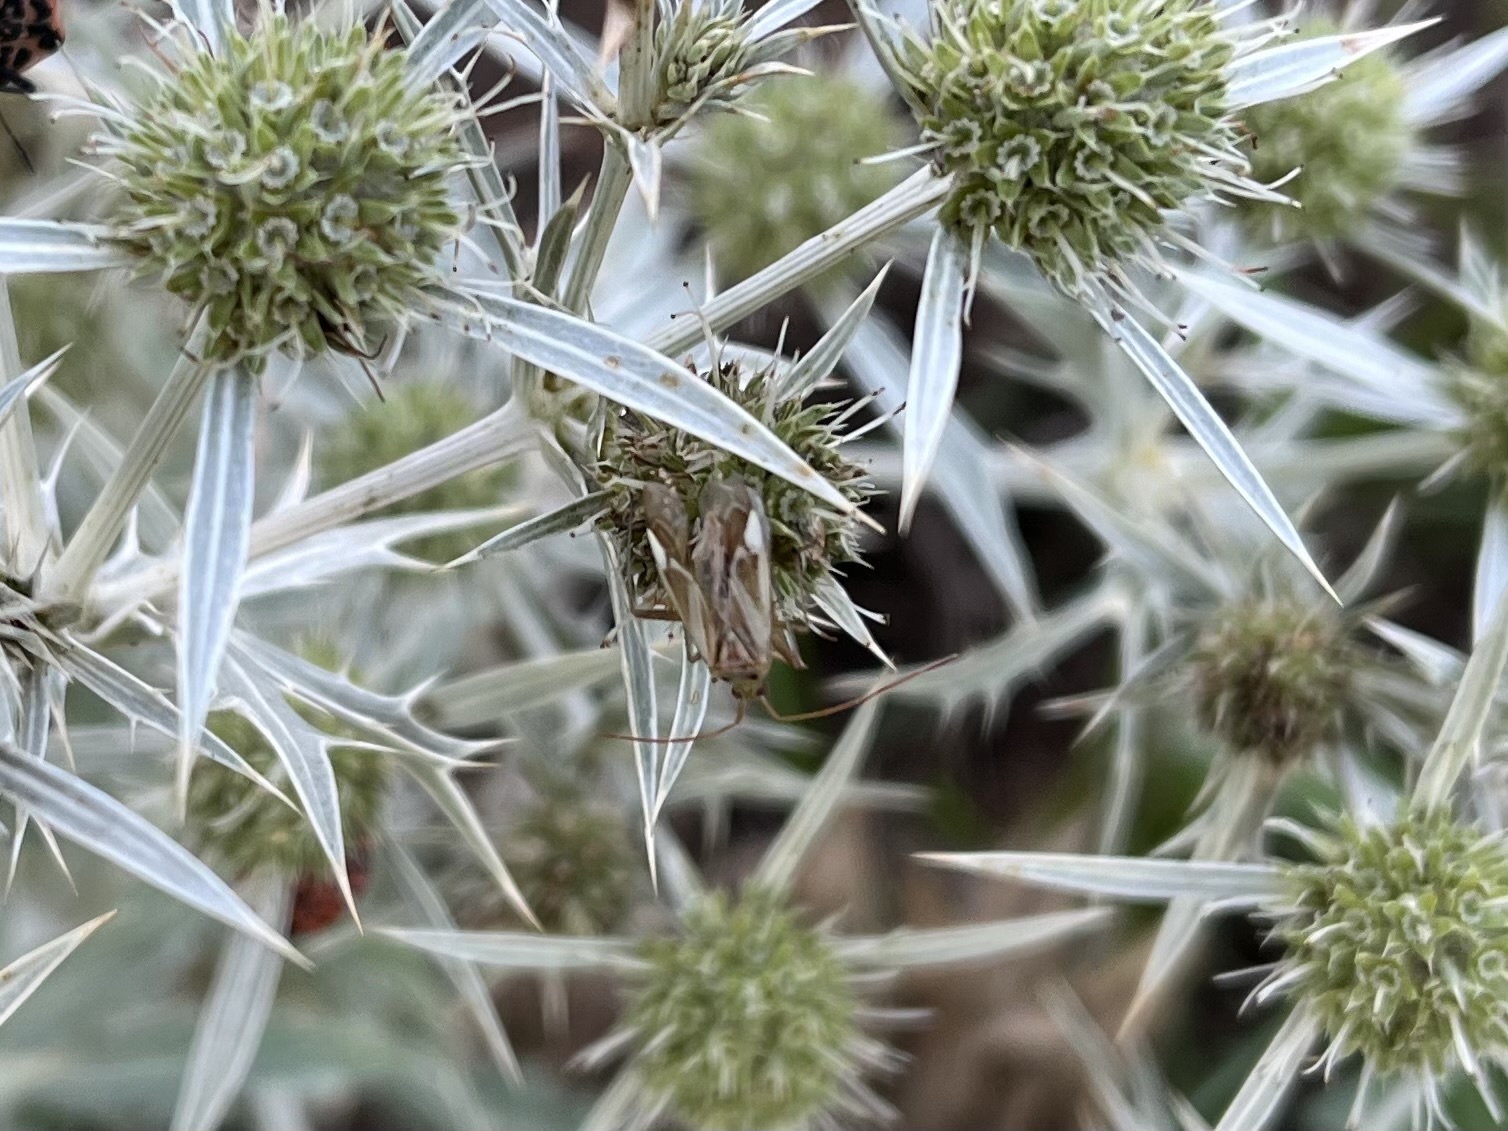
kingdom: Animalia
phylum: Arthropoda
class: Insecta
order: Hemiptera
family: Miridae
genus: Adelphocoris
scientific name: Adelphocoris lineolatus
